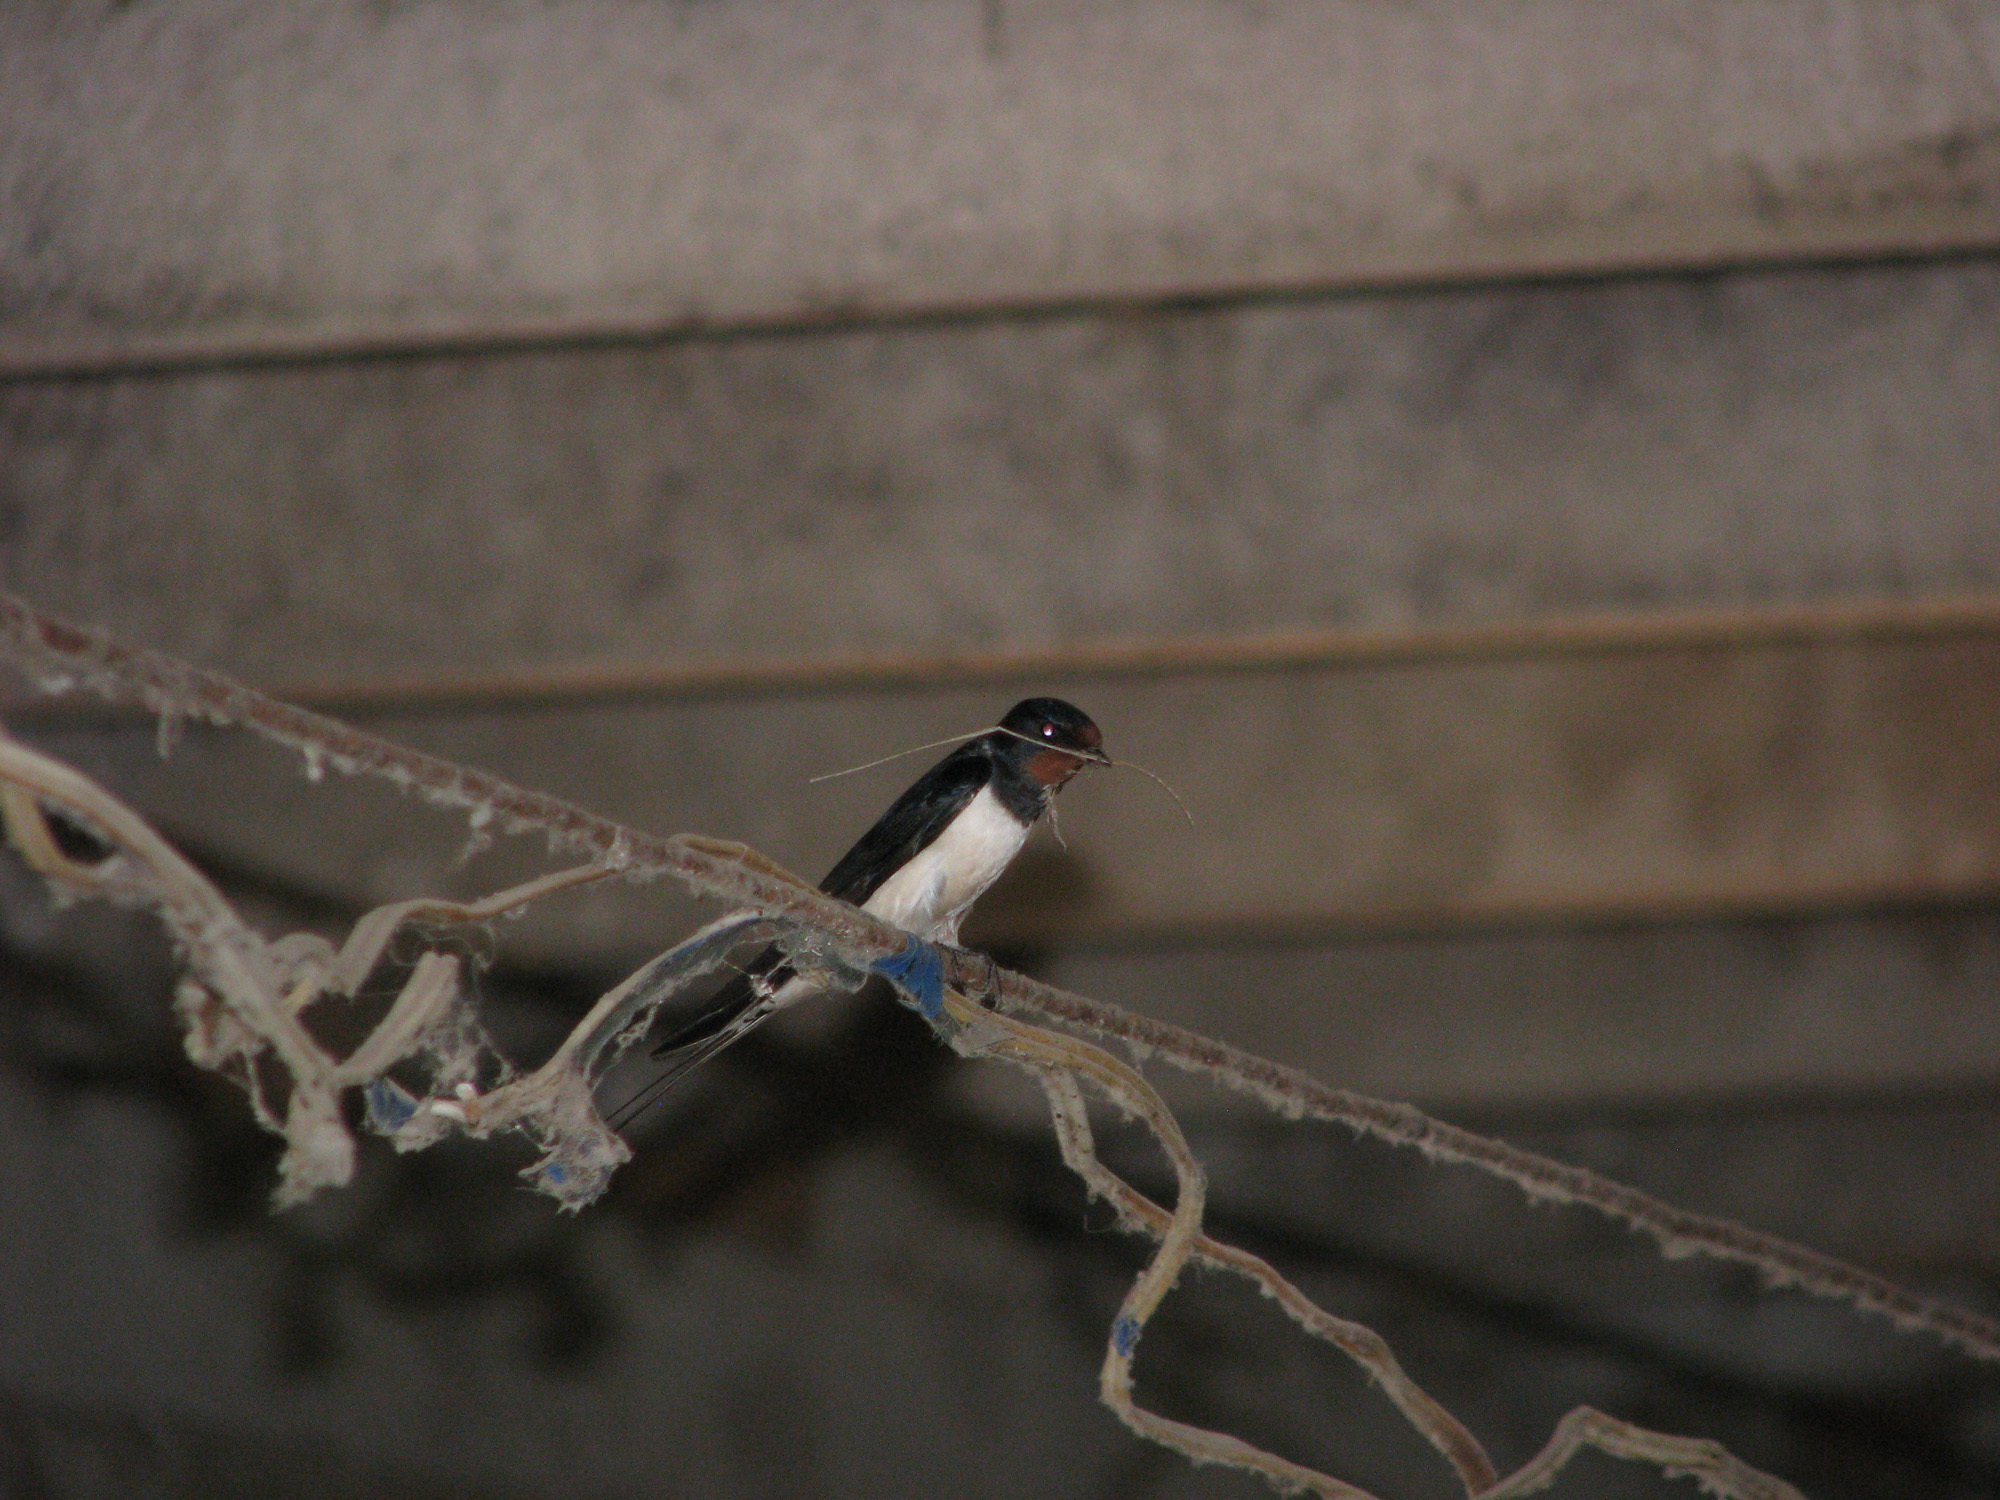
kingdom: Animalia
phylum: Chordata
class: Aves
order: Passeriformes
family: Hirundinidae
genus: Hirundo
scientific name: Hirundo rustica
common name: Barn swallow
